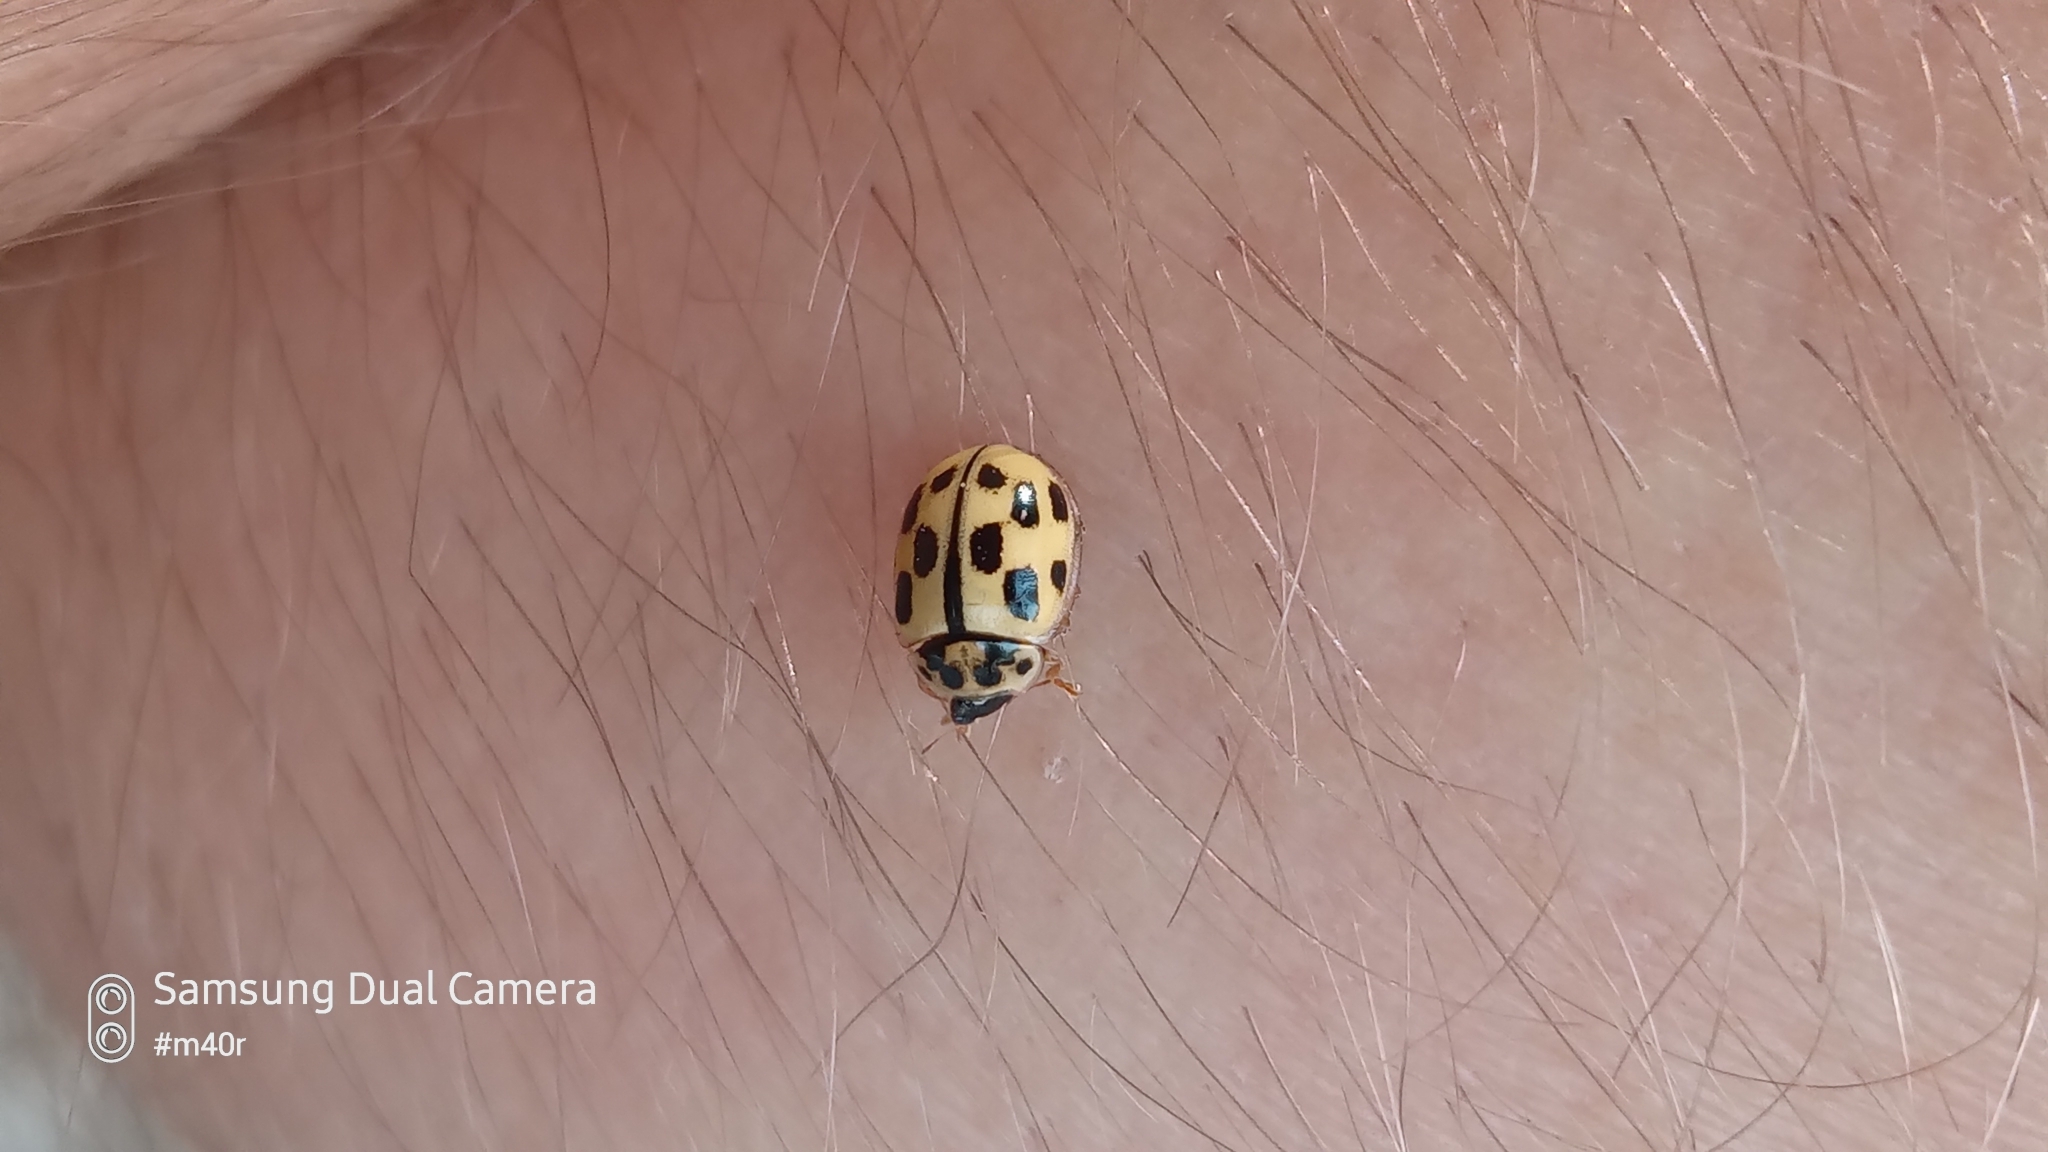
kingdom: Animalia
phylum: Arthropoda
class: Insecta
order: Coleoptera
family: Coccinellidae
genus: Propylaea
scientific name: Propylaea quatuordecimpunctata
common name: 14-spotted ladybird beetle
